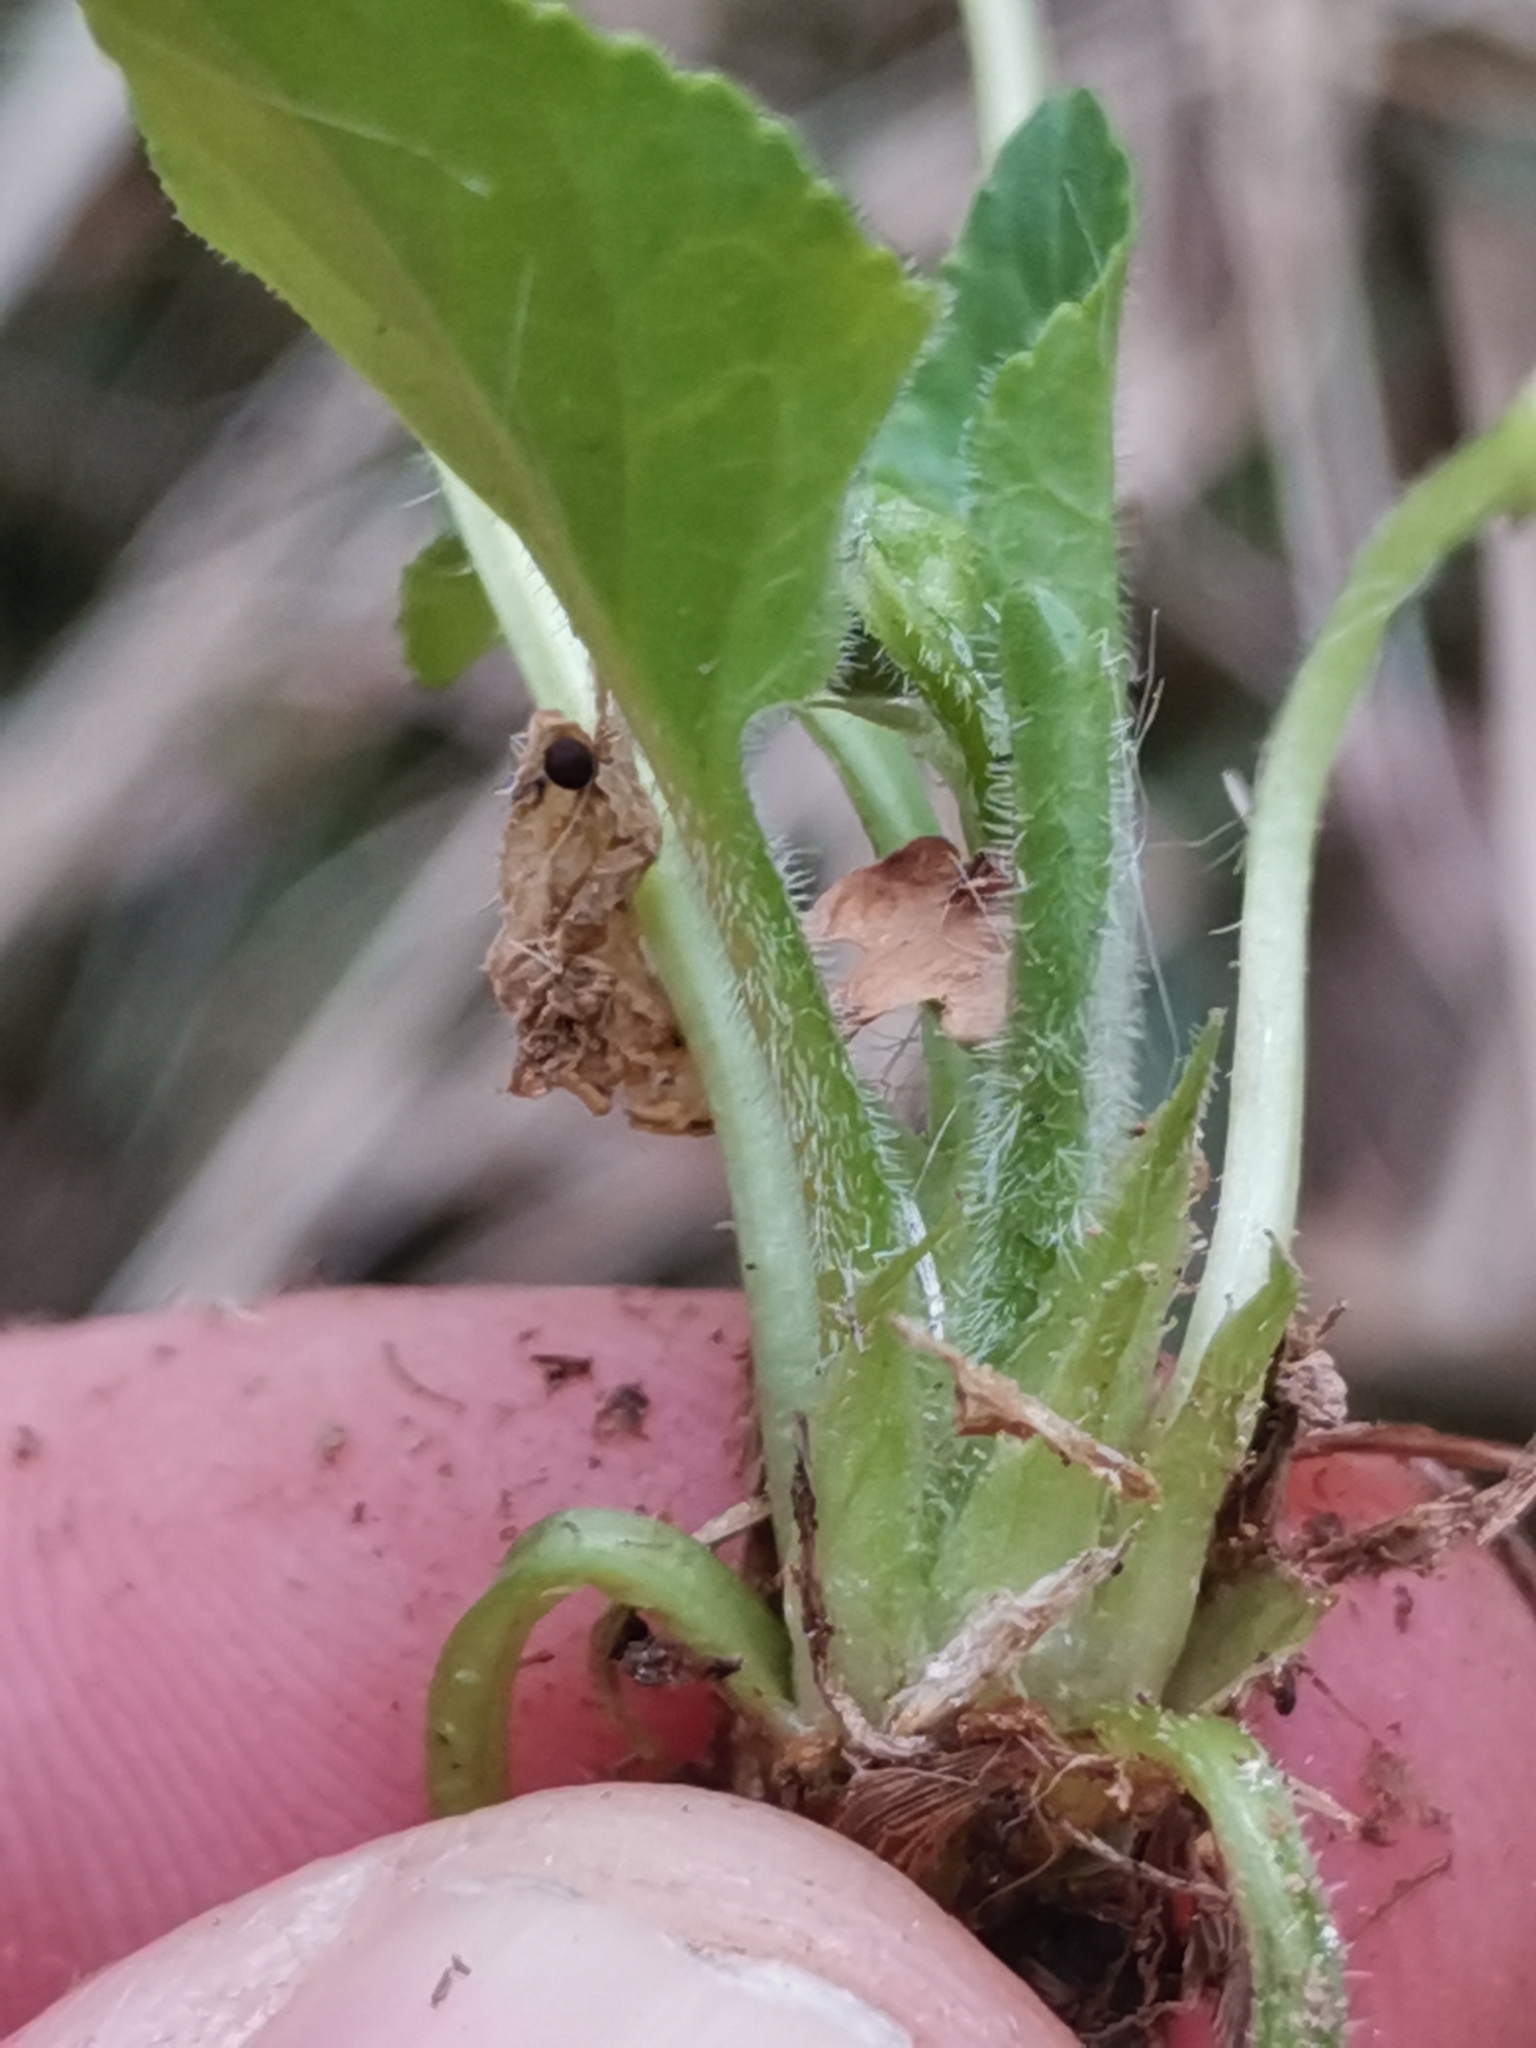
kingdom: Plantae
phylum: Tracheophyta
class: Magnoliopsida
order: Malpighiales
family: Violaceae
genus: Viola
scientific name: Viola hirta
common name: Hairy violet
